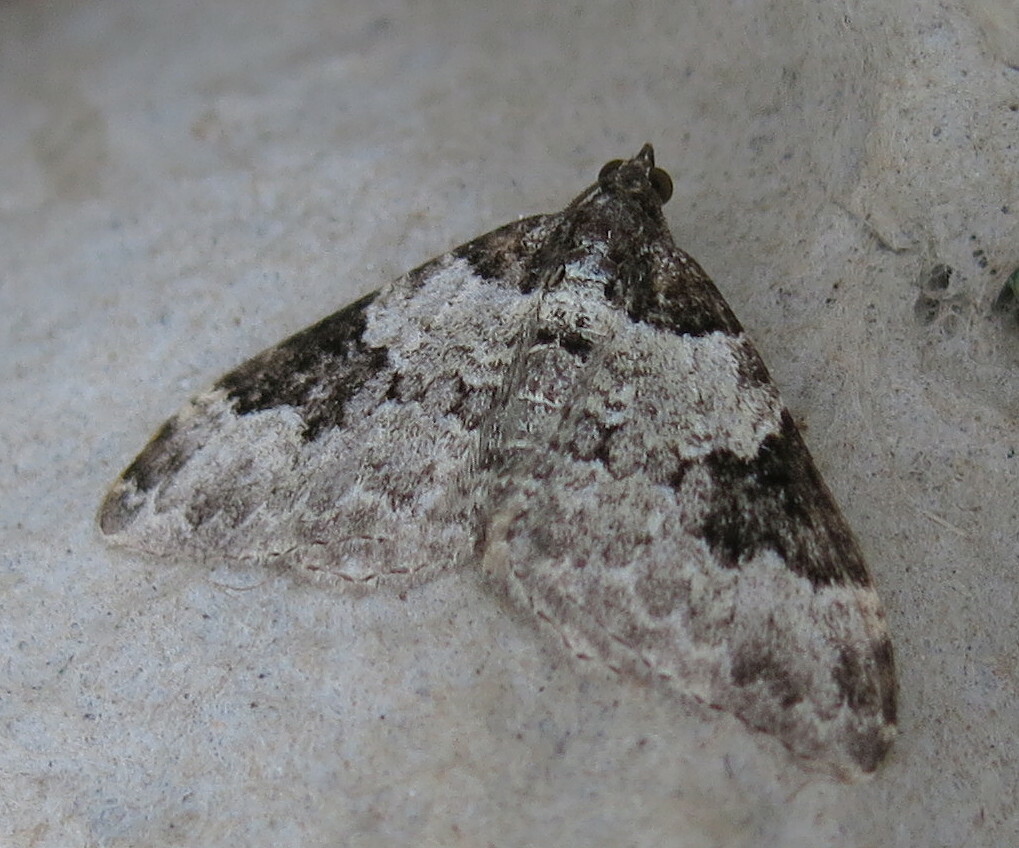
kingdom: Animalia
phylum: Arthropoda
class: Insecta
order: Lepidoptera
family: Geometridae
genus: Xanthorhoe
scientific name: Xanthorhoe fluctuata
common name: Garden carpet
